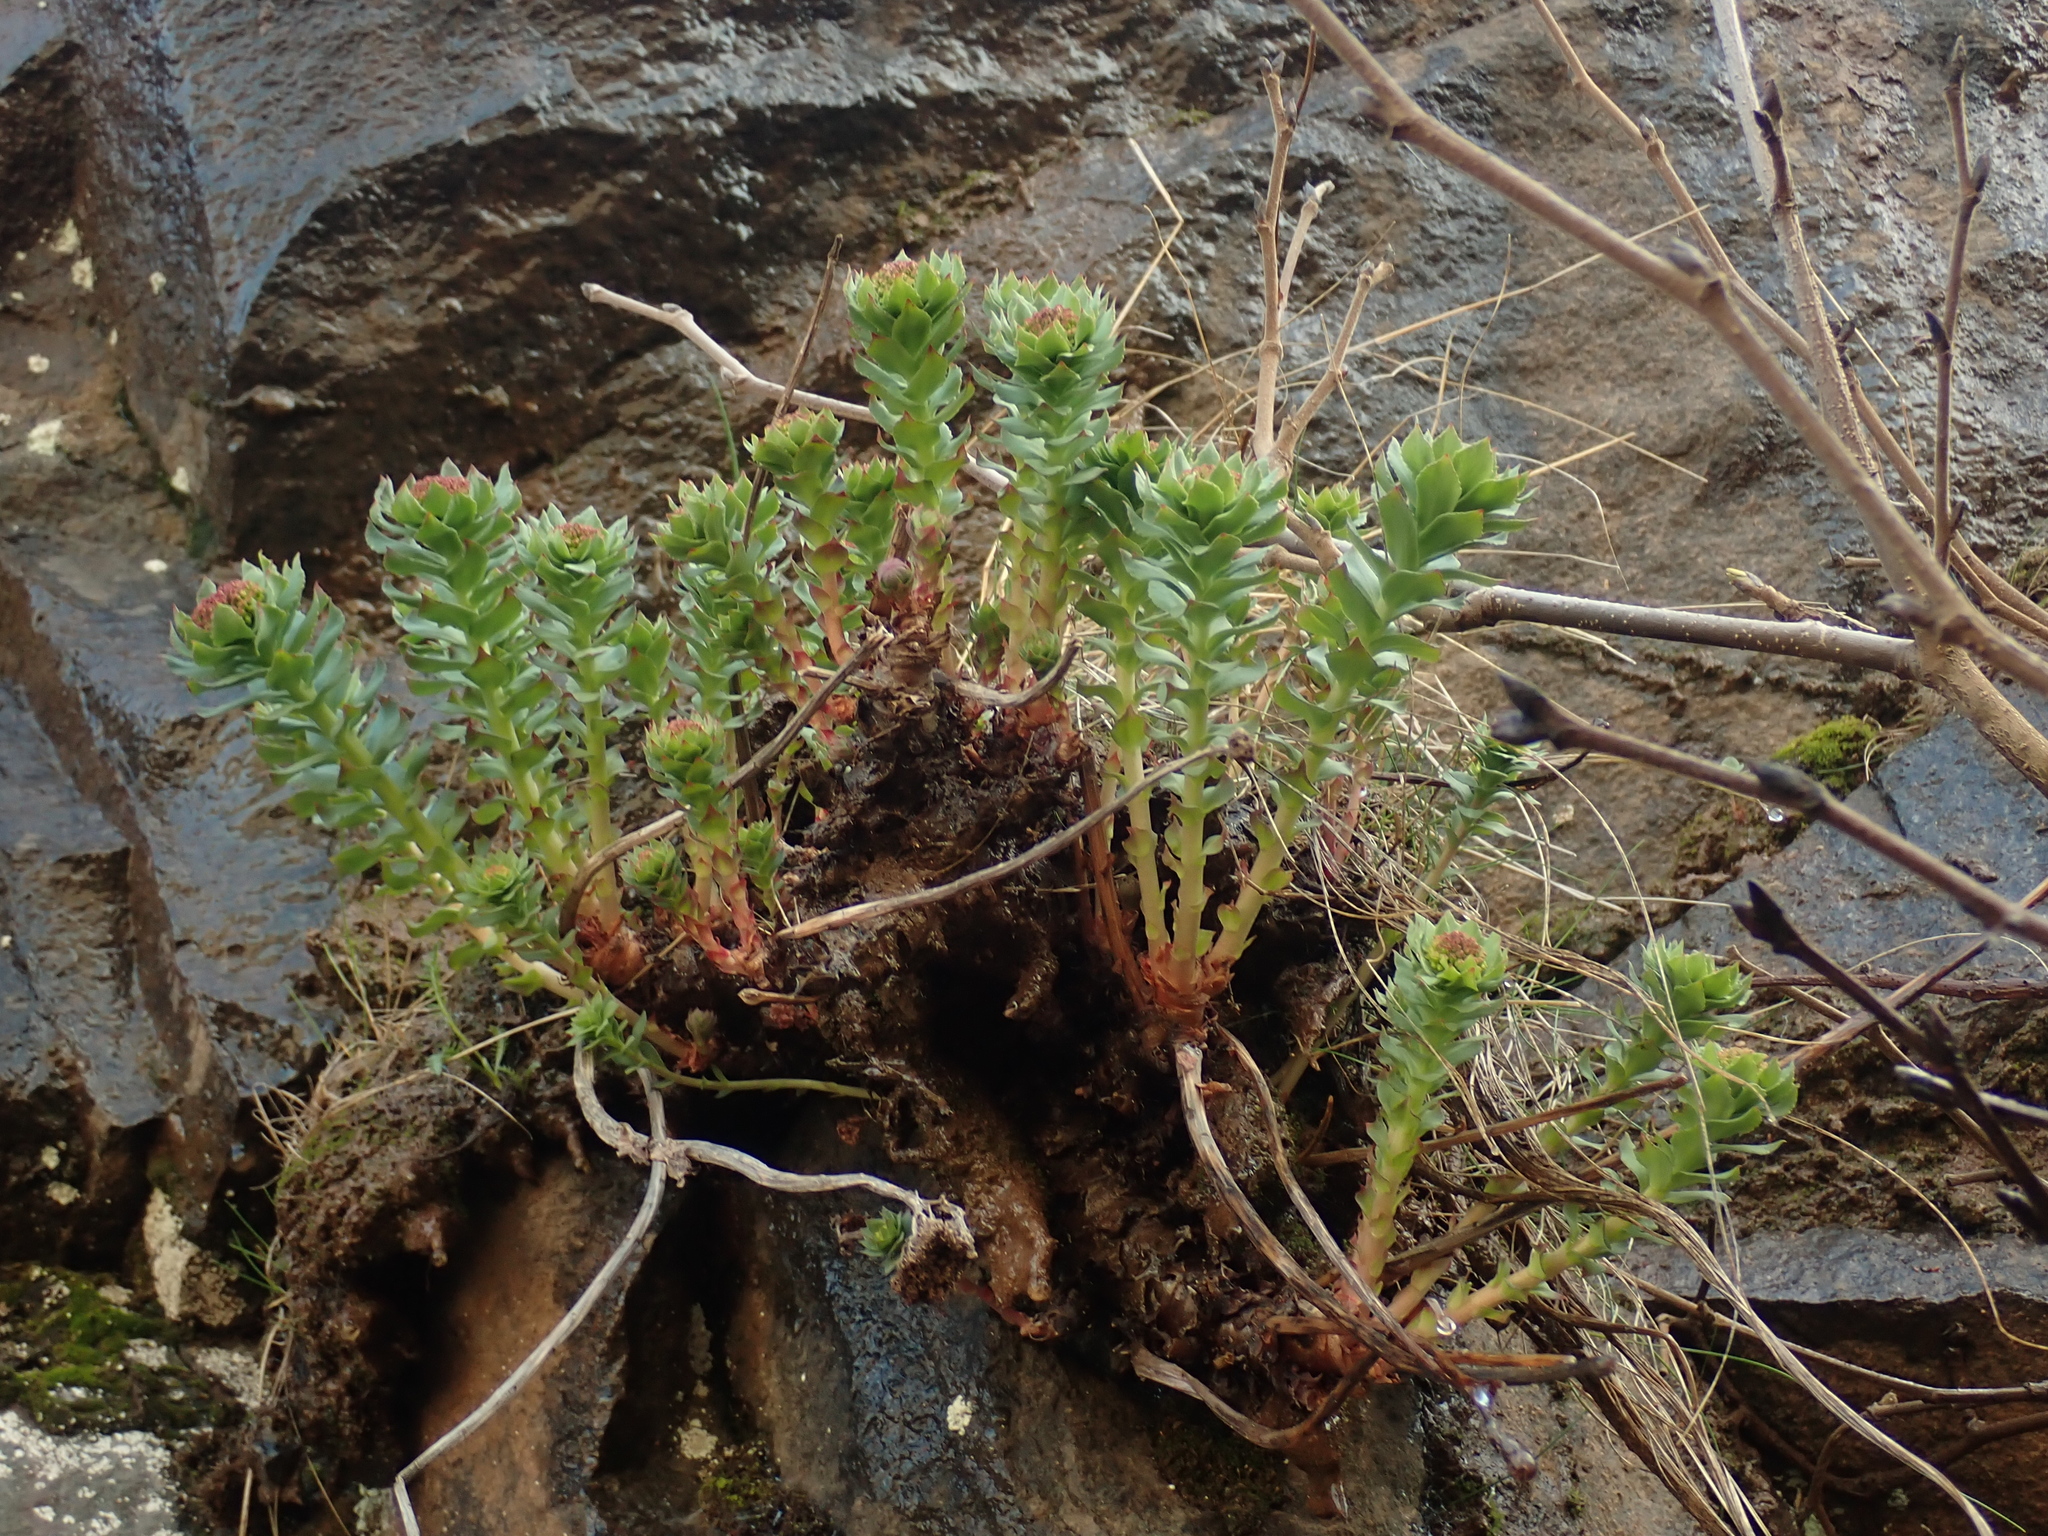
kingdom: Plantae
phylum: Tracheophyta
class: Magnoliopsida
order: Saxifragales
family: Crassulaceae
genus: Rhodiola
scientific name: Rhodiola rosea
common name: Roseroot
